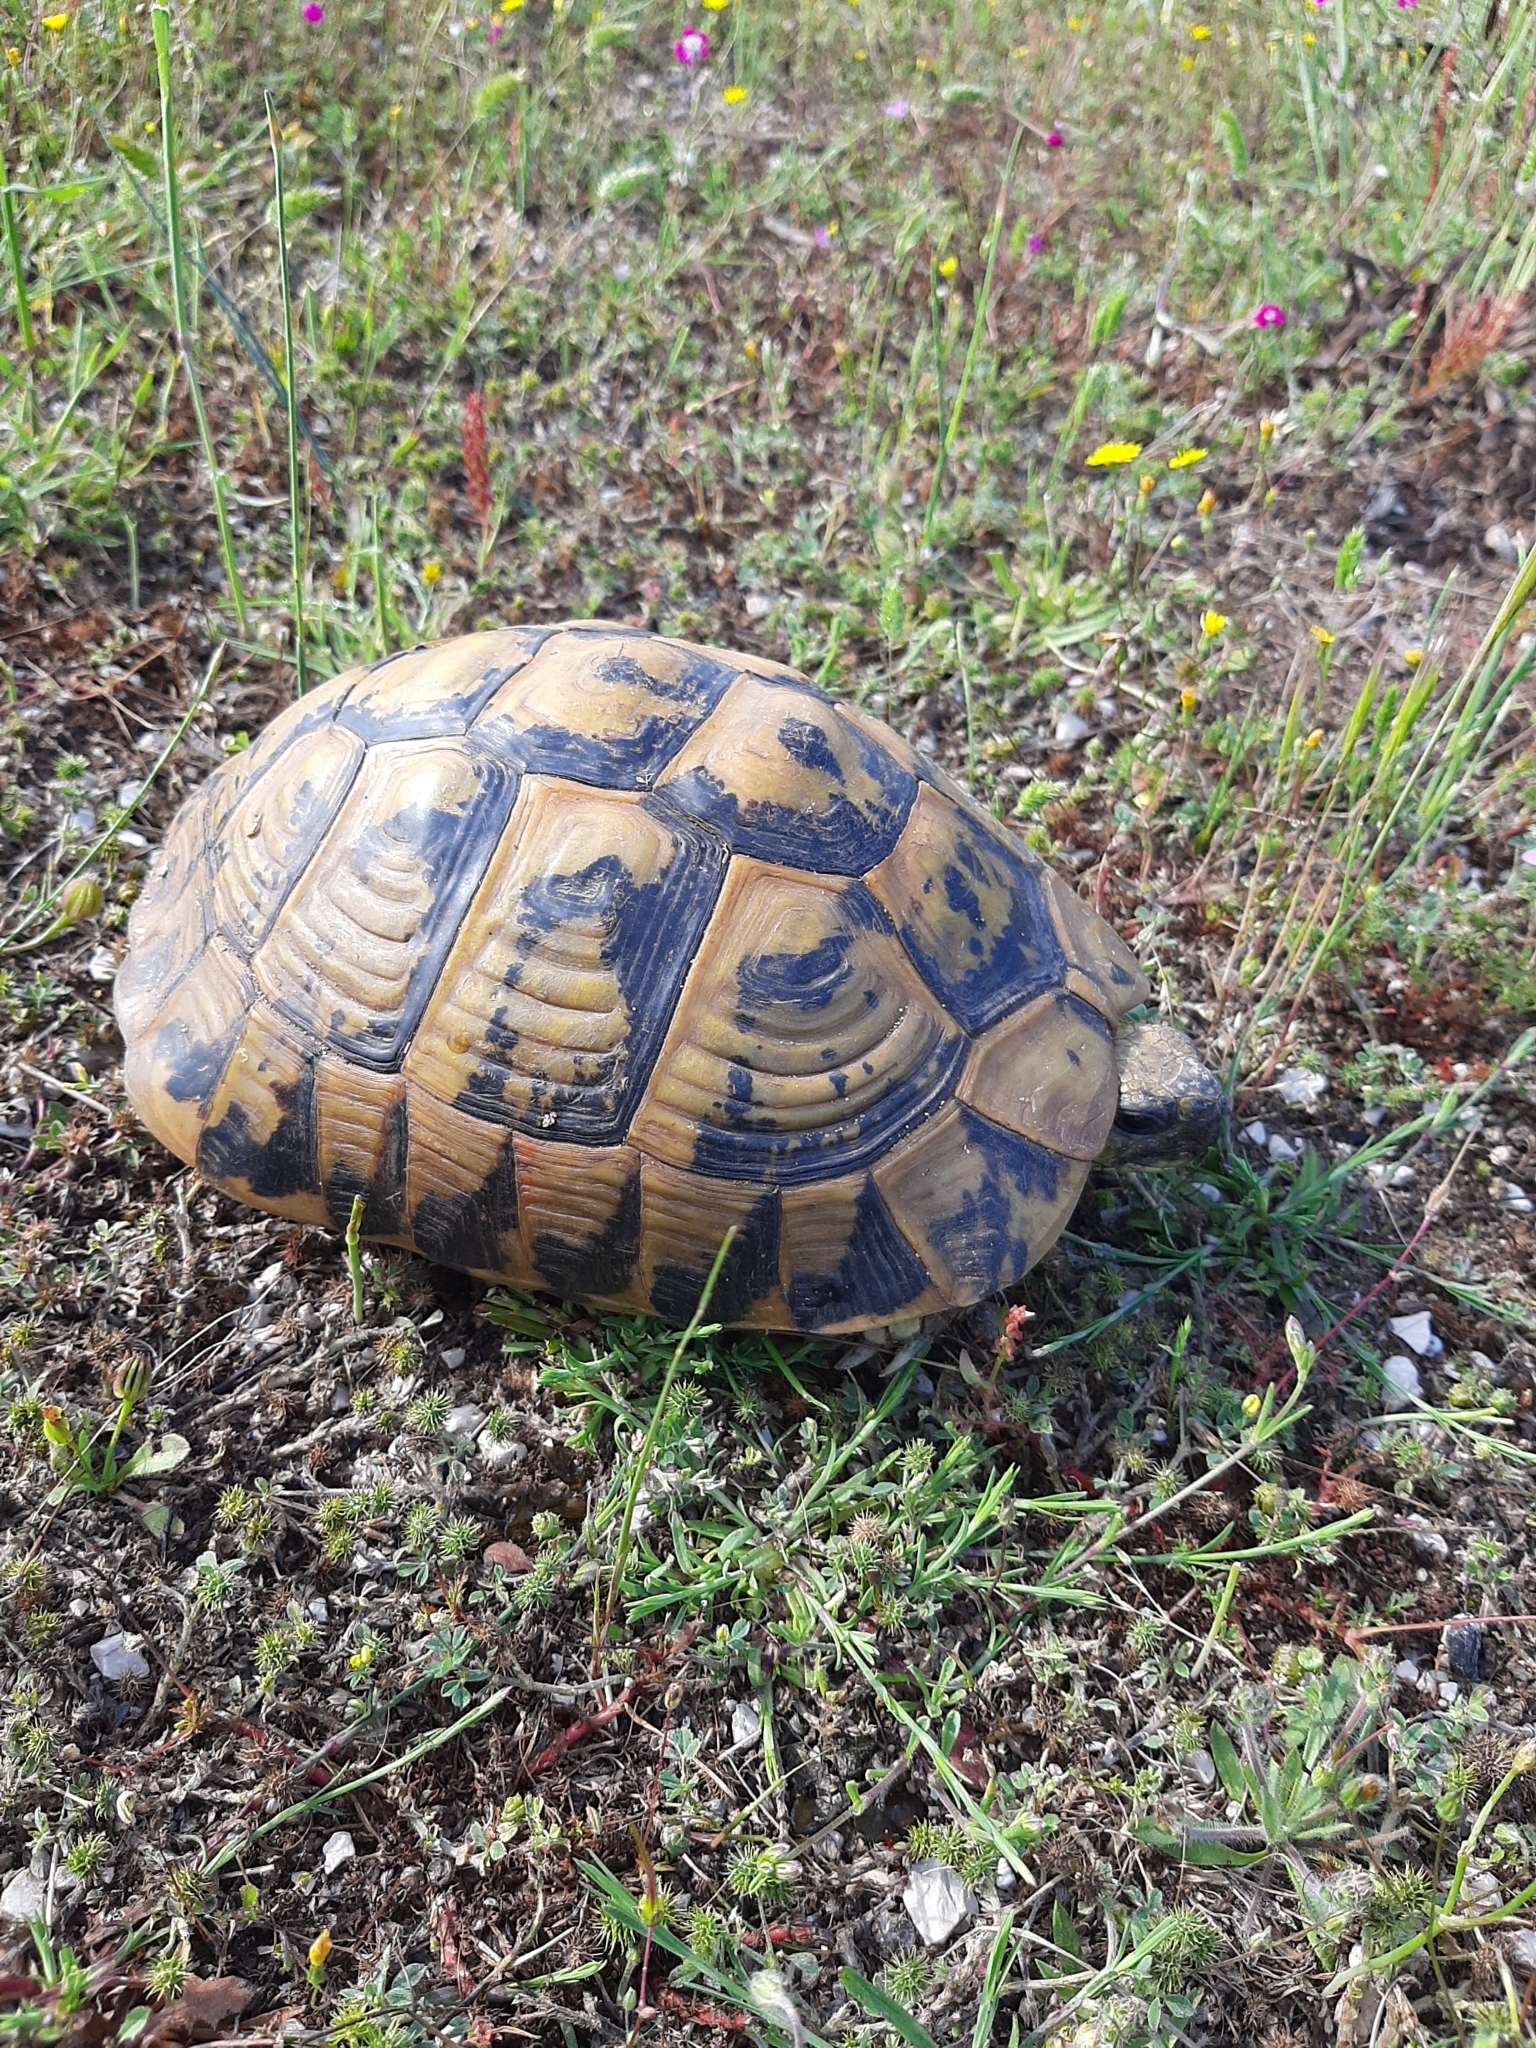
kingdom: Animalia
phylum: Chordata
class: Testudines
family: Testudinidae
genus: Testudo
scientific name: Testudo hermanni
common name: Hermann's tortoise
